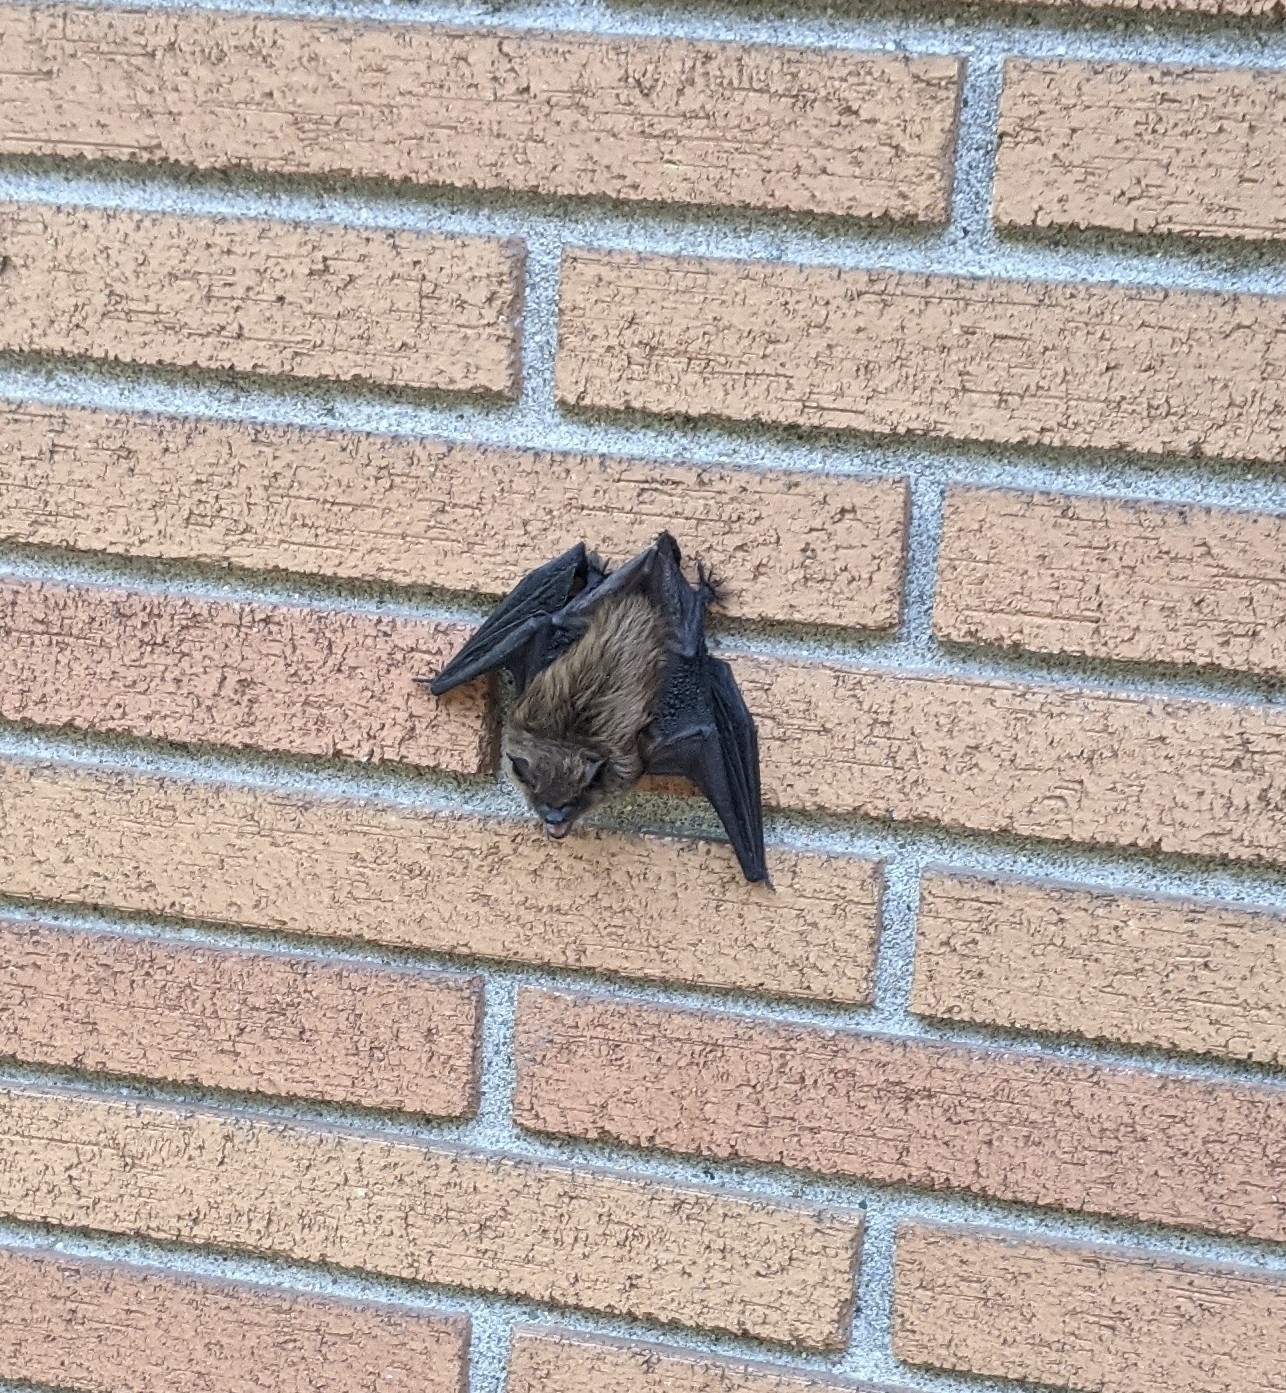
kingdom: Animalia
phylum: Chordata
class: Mammalia
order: Chiroptera
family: Vespertilionidae
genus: Eptesicus
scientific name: Eptesicus fuscus
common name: Big brown bat
